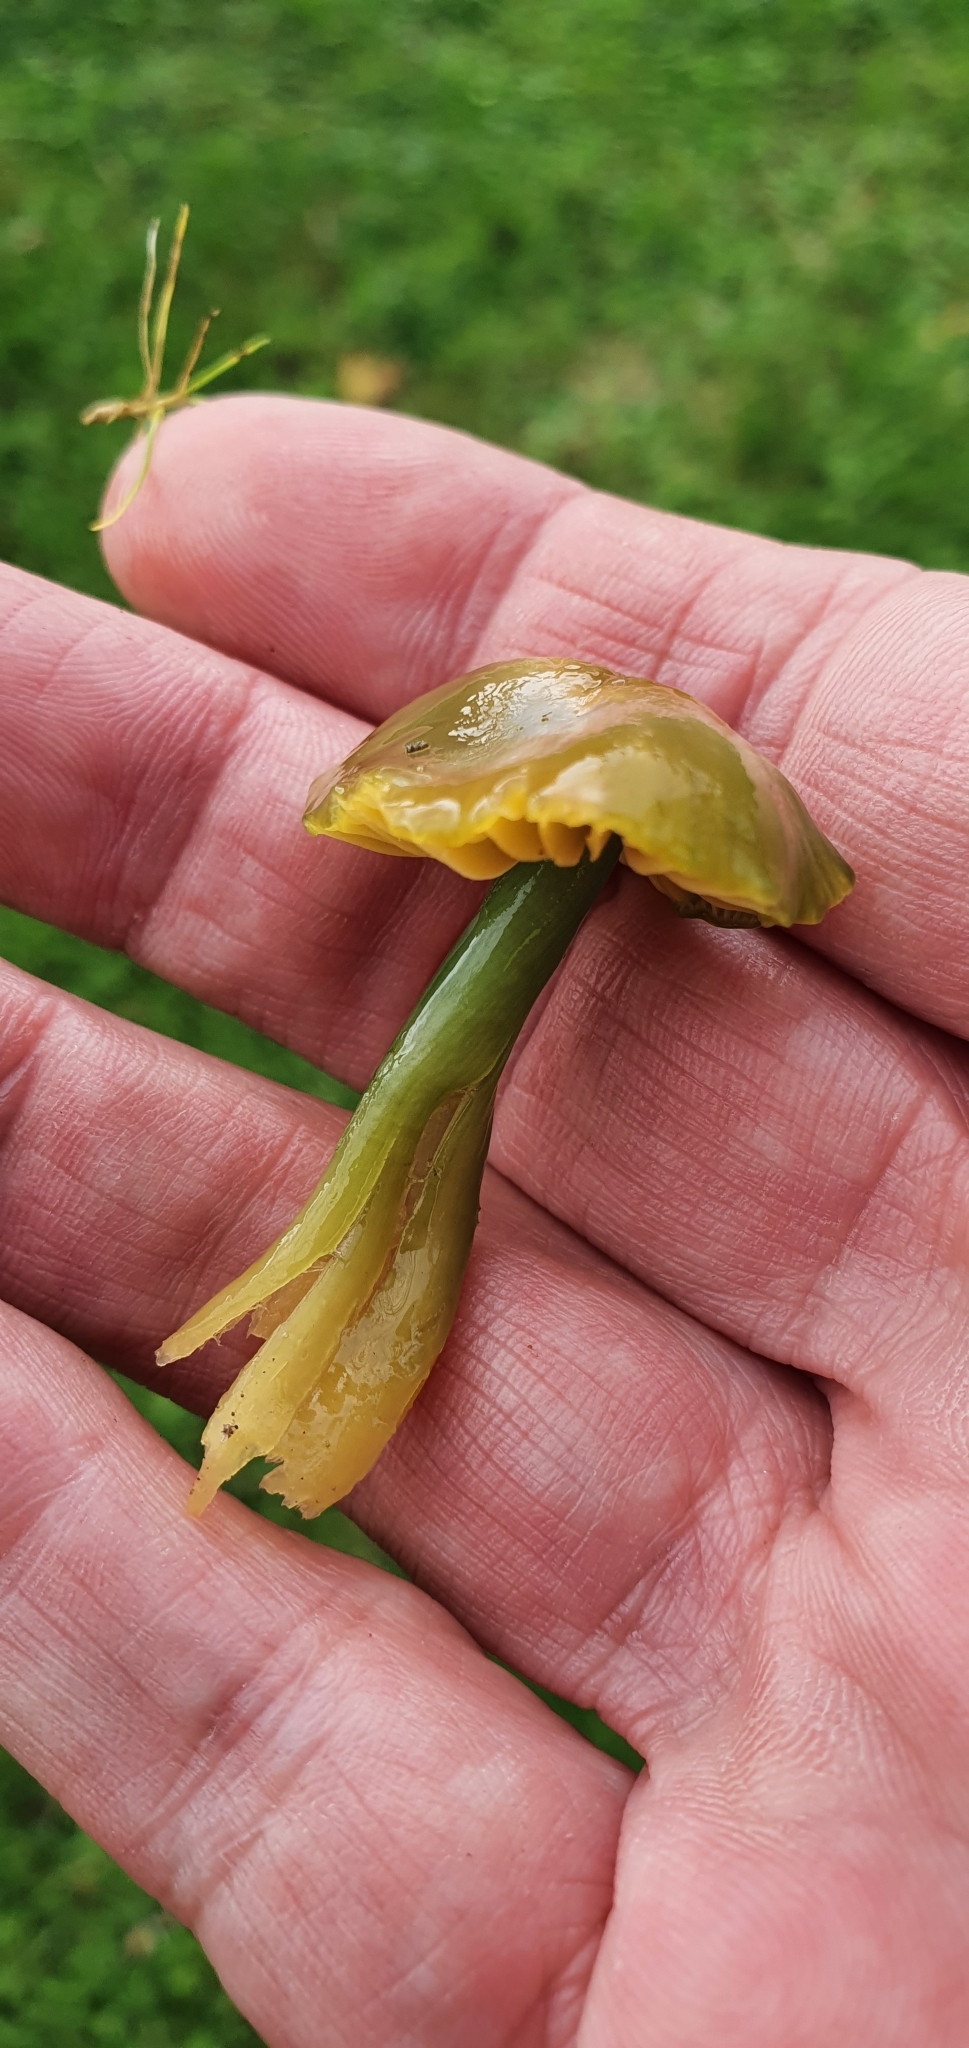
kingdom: Fungi
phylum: Basidiomycota
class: Agaricomycetes
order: Agaricales
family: Hygrophoraceae
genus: Gliophorus
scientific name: Gliophorus psittacinus
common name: Parrot wax-cap
